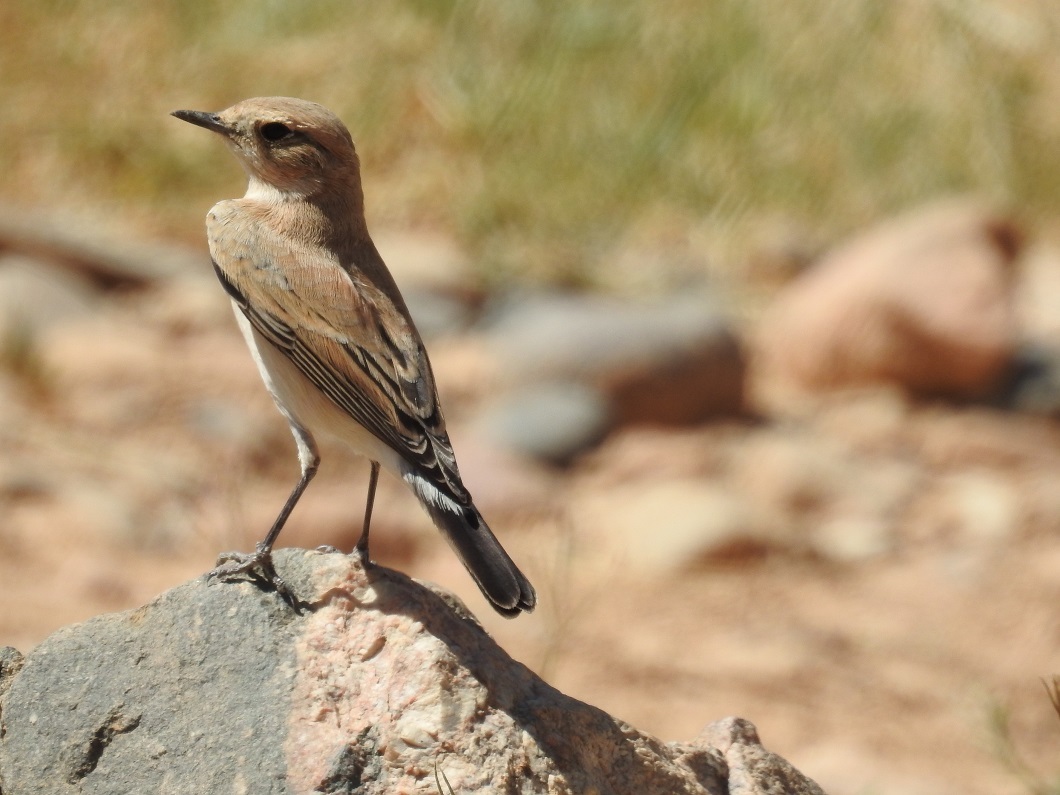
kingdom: Animalia
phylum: Chordata
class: Aves
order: Passeriformes
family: Muscicapidae
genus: Oenanthe
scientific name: Oenanthe oenanthe
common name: Northern wheatear
